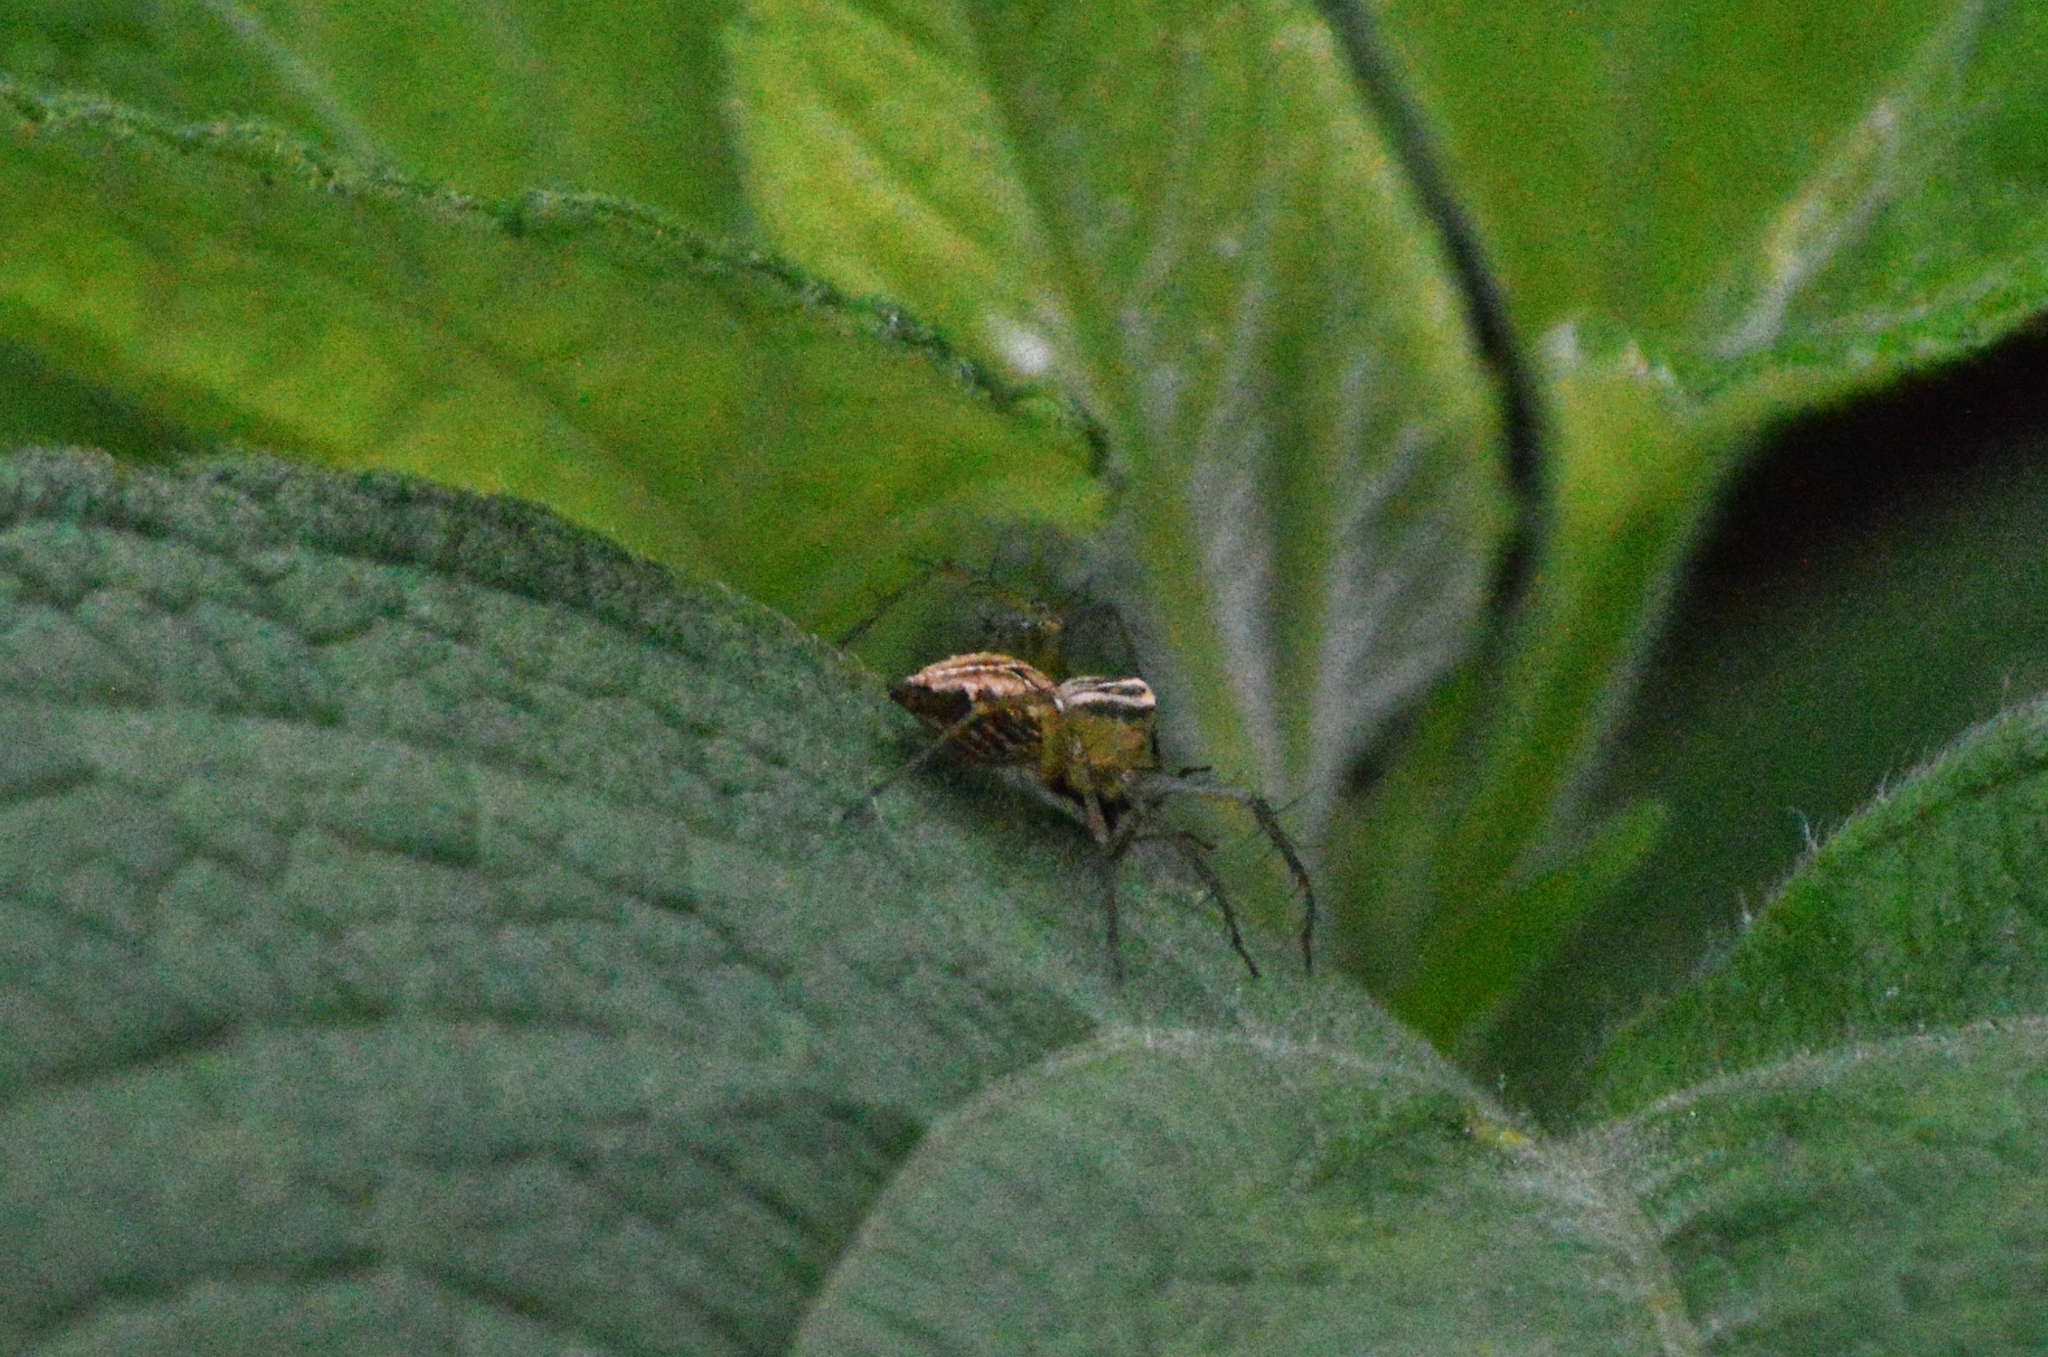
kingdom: Animalia
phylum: Arthropoda
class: Arachnida
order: Araneae
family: Oxyopidae
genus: Oxyopes
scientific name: Oxyopes salticus
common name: Lynx spiders
